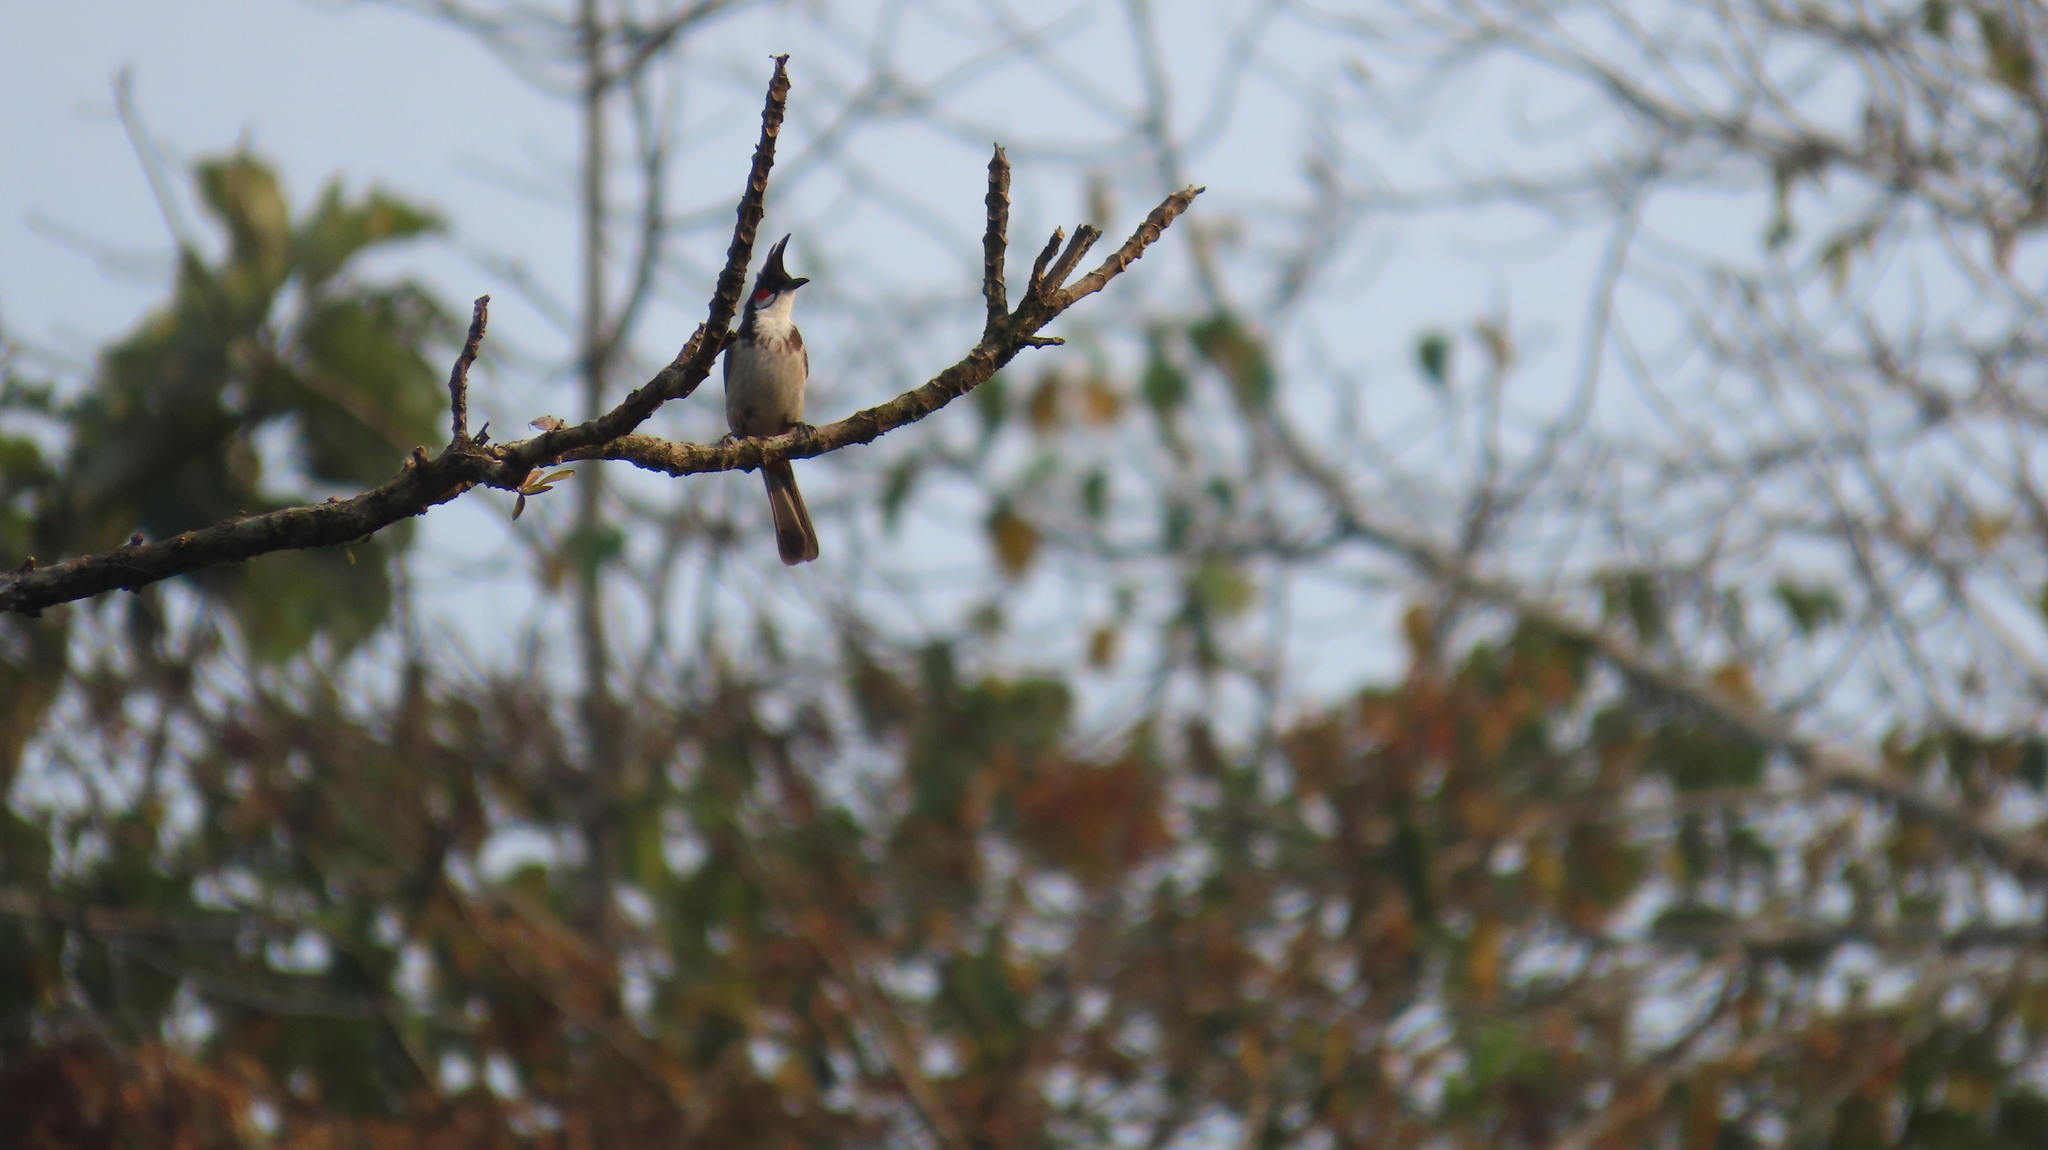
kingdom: Animalia
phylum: Chordata
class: Aves
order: Passeriformes
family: Pycnonotidae
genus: Pycnonotus
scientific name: Pycnonotus jocosus
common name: Red-whiskered bulbul
